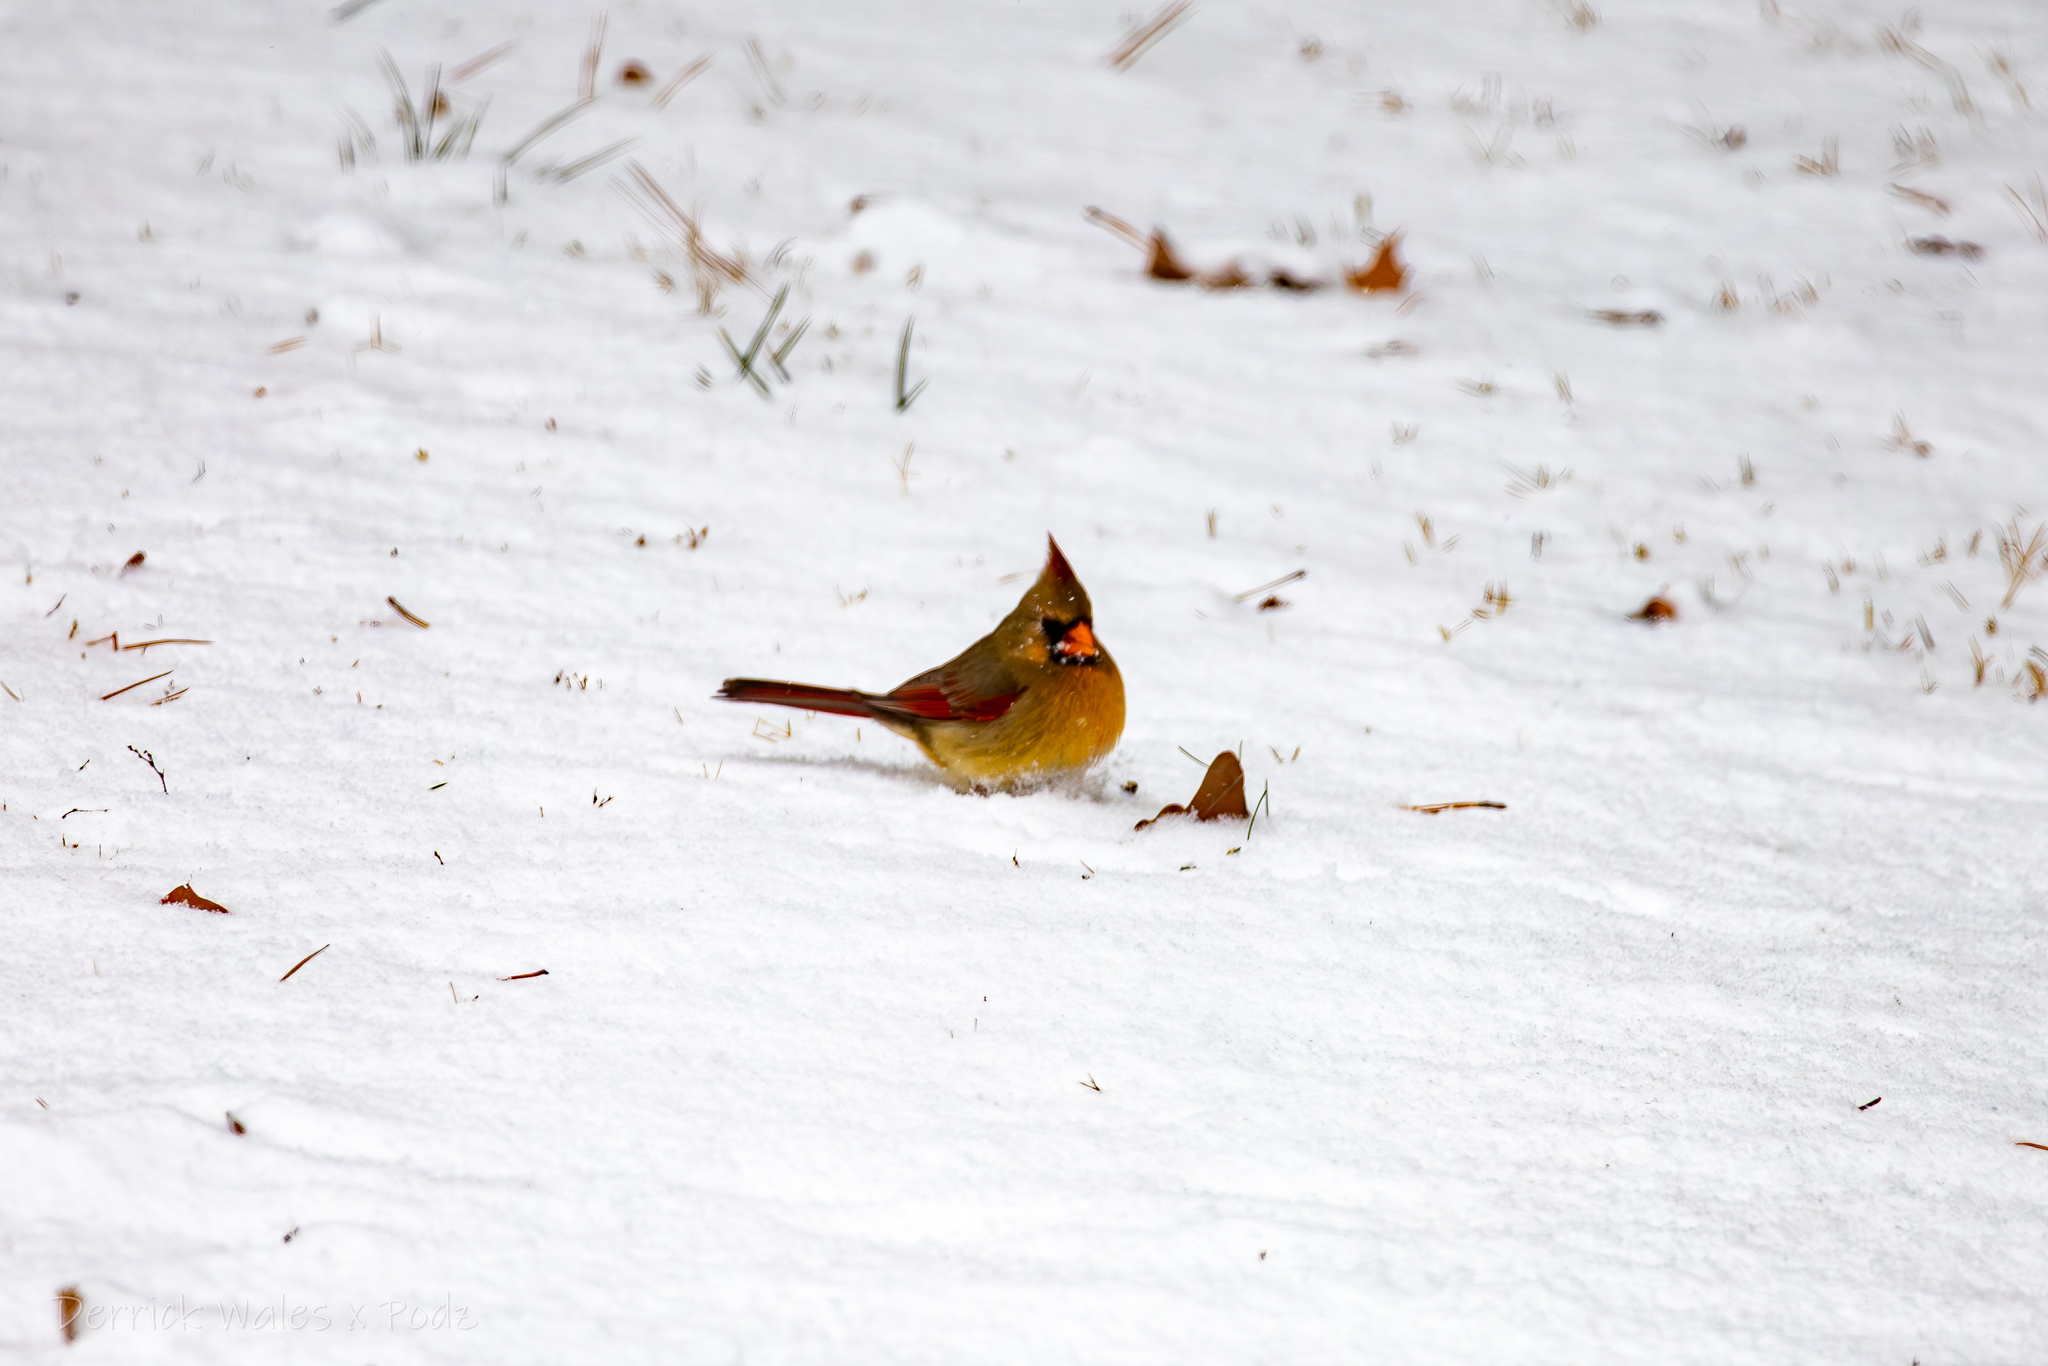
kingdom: Animalia
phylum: Chordata
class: Aves
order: Passeriformes
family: Cardinalidae
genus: Cardinalis
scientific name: Cardinalis cardinalis
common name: Northern cardinal
